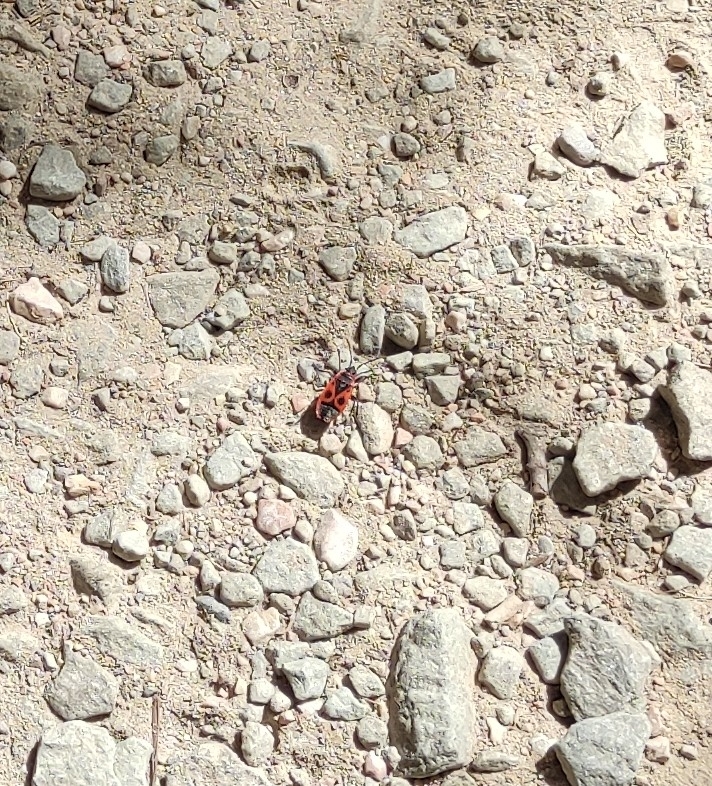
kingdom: Animalia
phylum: Arthropoda
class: Insecta
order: Hemiptera
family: Pyrrhocoridae
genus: Pyrrhocoris
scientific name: Pyrrhocoris apterus
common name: Firebug
